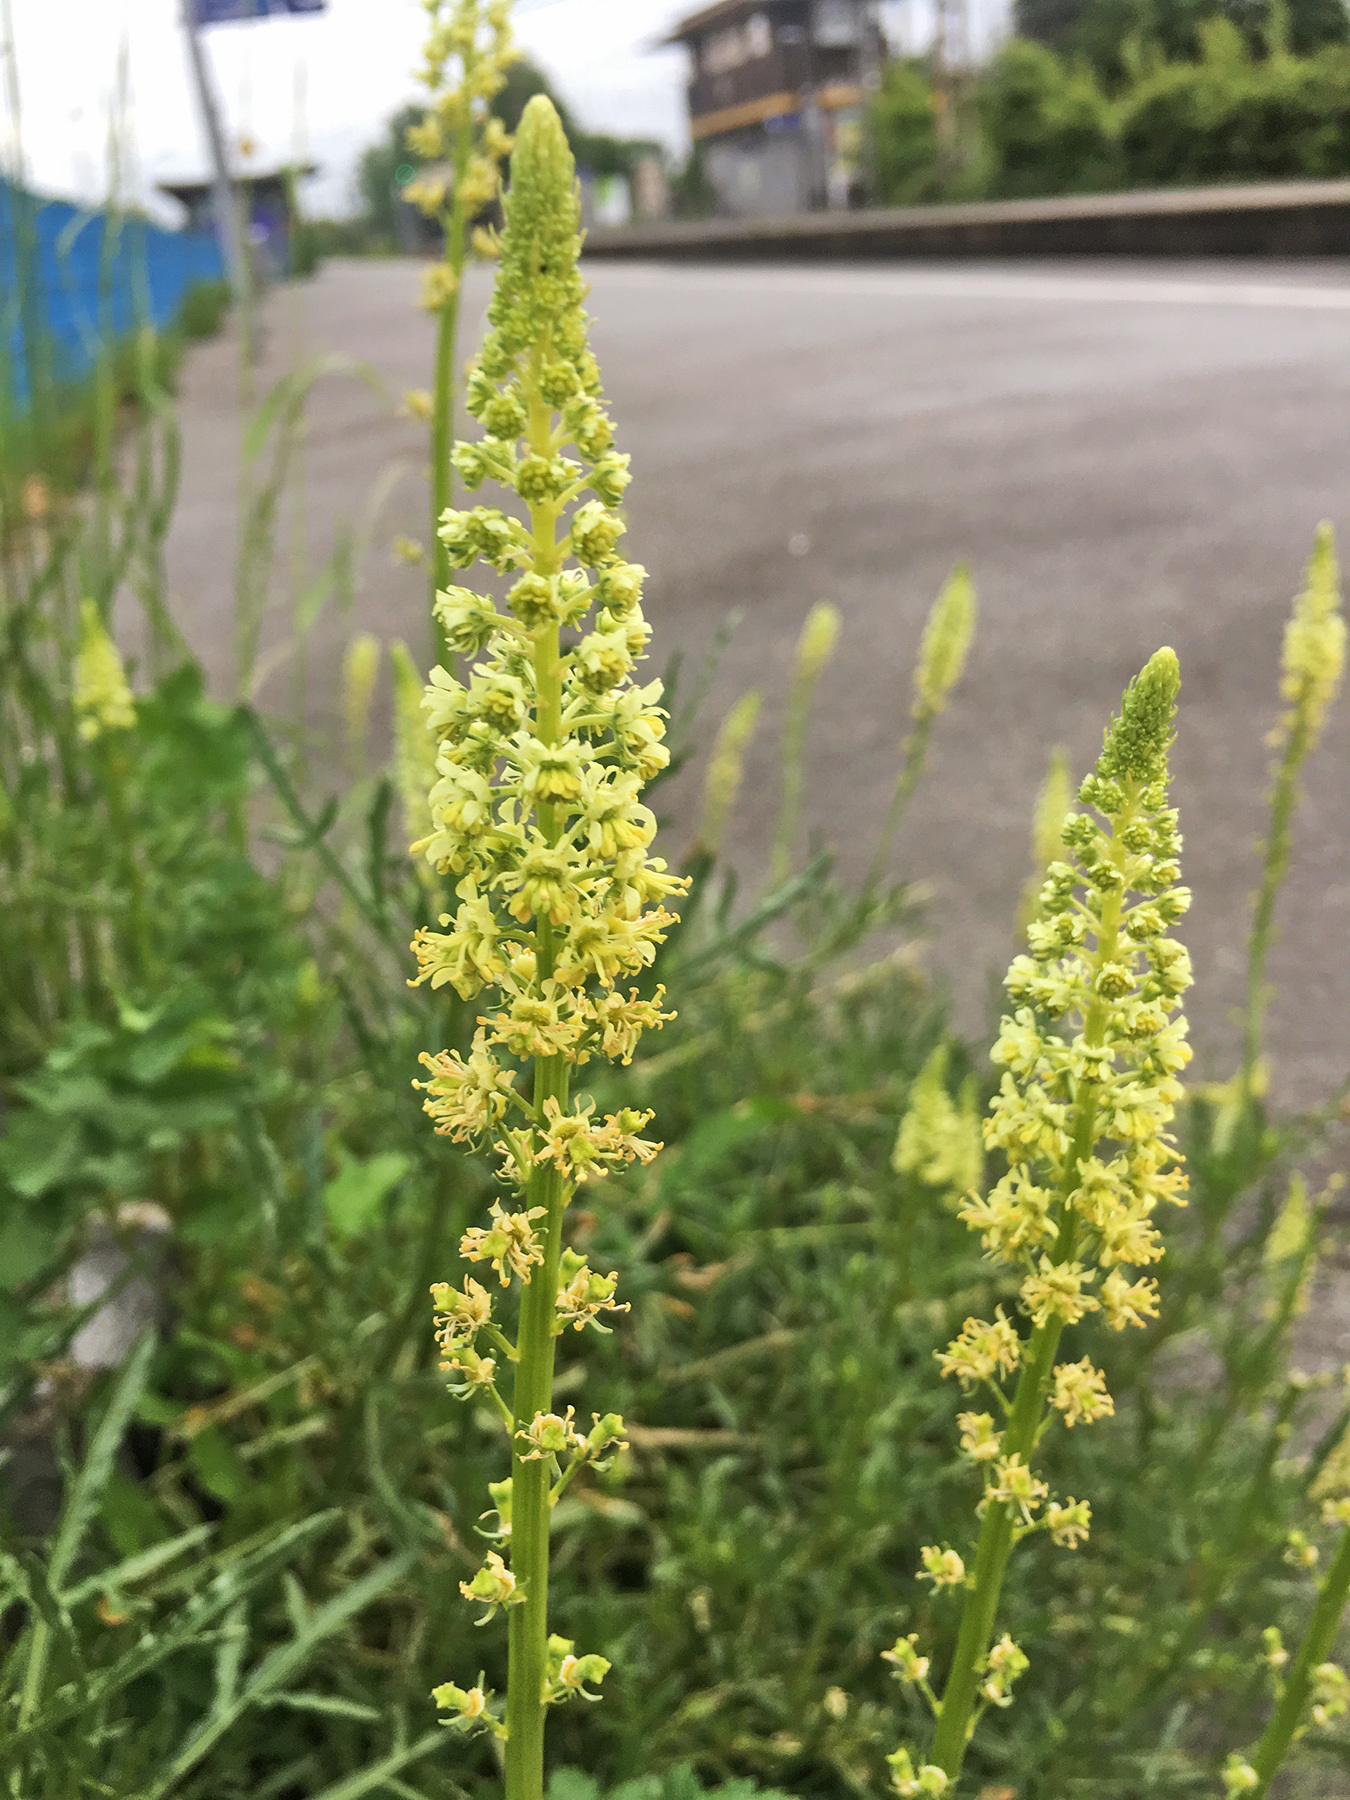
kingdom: Plantae
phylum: Tracheophyta
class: Magnoliopsida
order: Brassicales
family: Resedaceae
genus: Reseda
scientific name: Reseda lutea
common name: Wild mignonette
